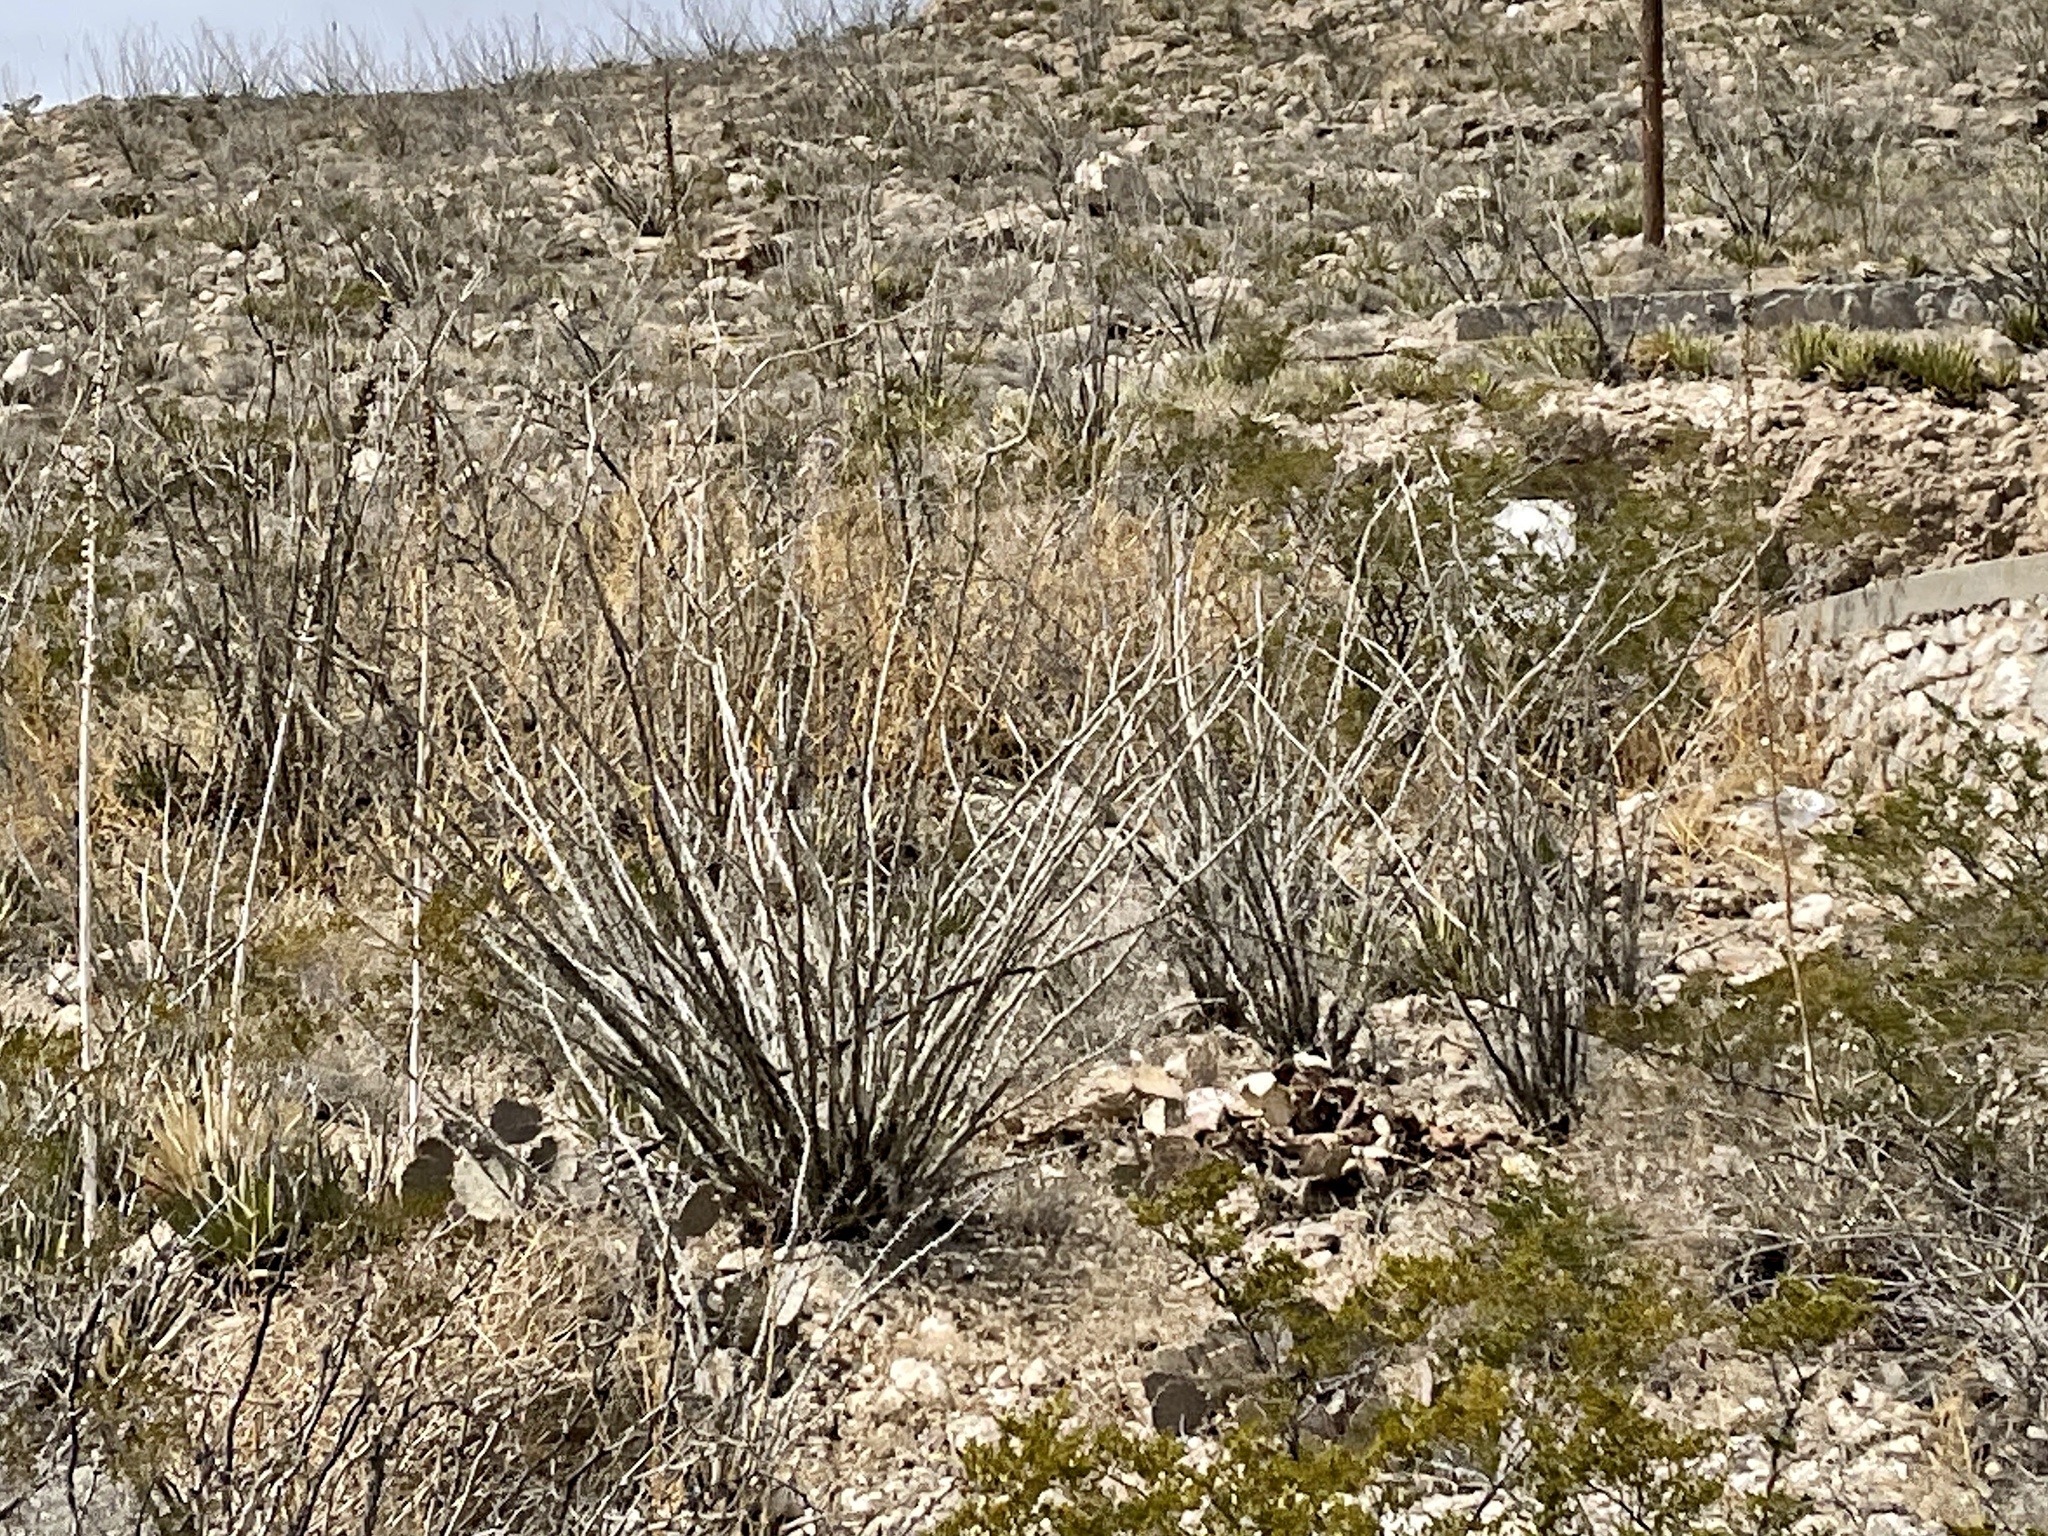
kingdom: Plantae
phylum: Tracheophyta
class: Magnoliopsida
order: Ericales
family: Fouquieriaceae
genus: Fouquieria
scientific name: Fouquieria splendens
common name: Vine-cactus
